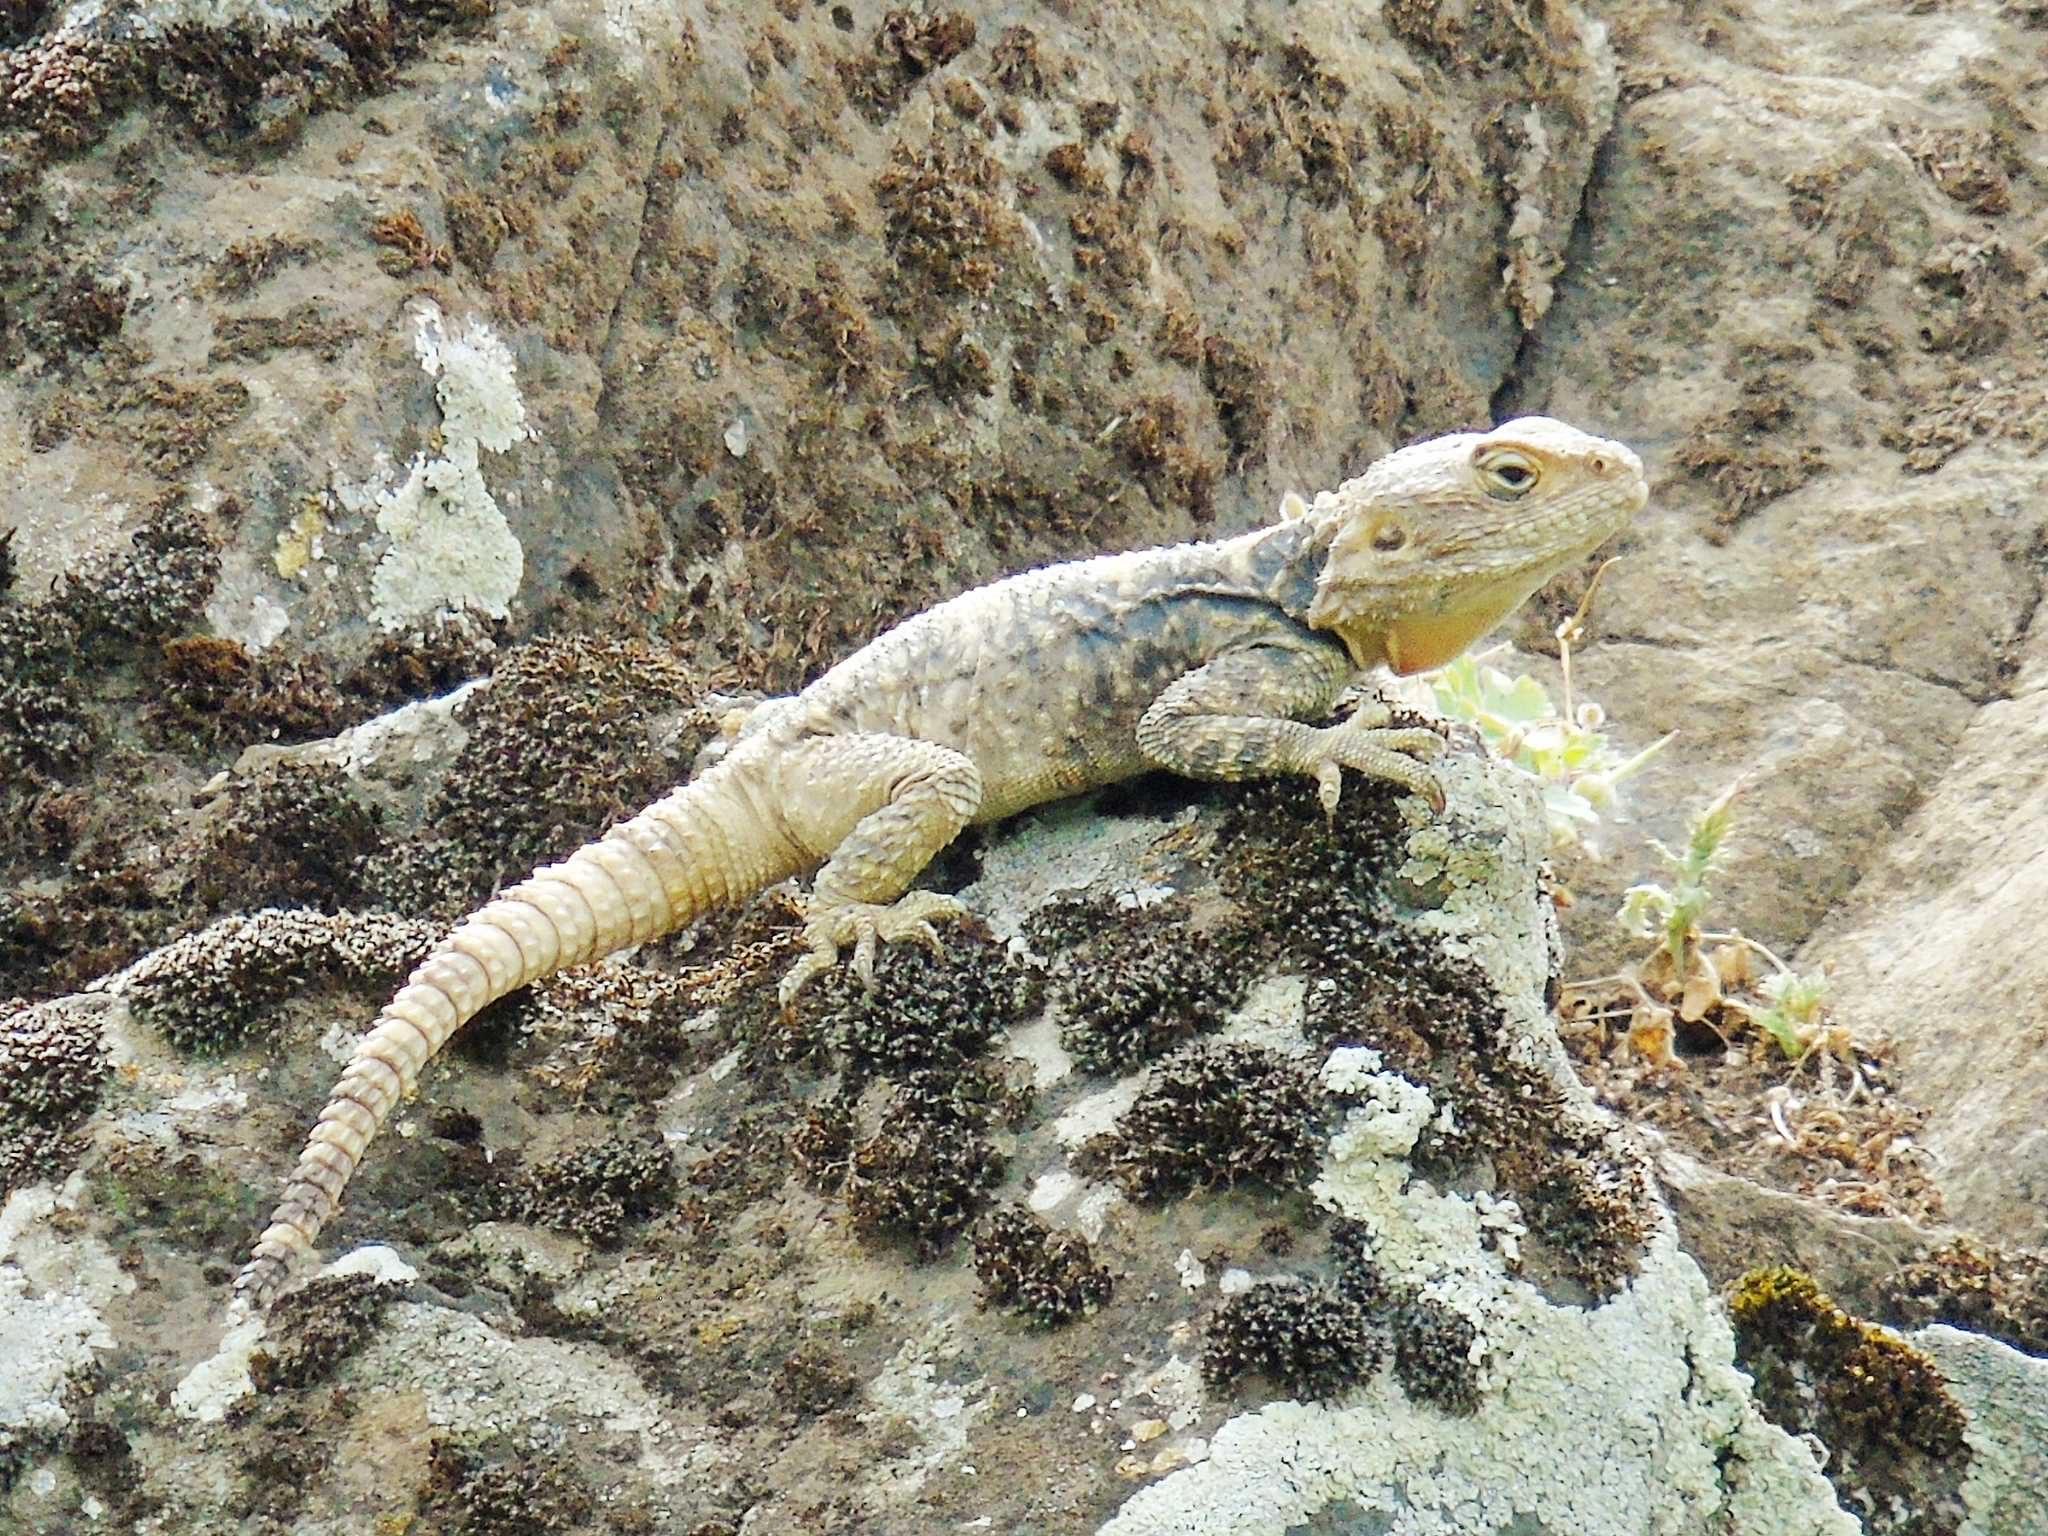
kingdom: Animalia
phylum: Chordata
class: Squamata
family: Agamidae
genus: Stellagama
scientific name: Stellagama stellio
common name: Starred agama
